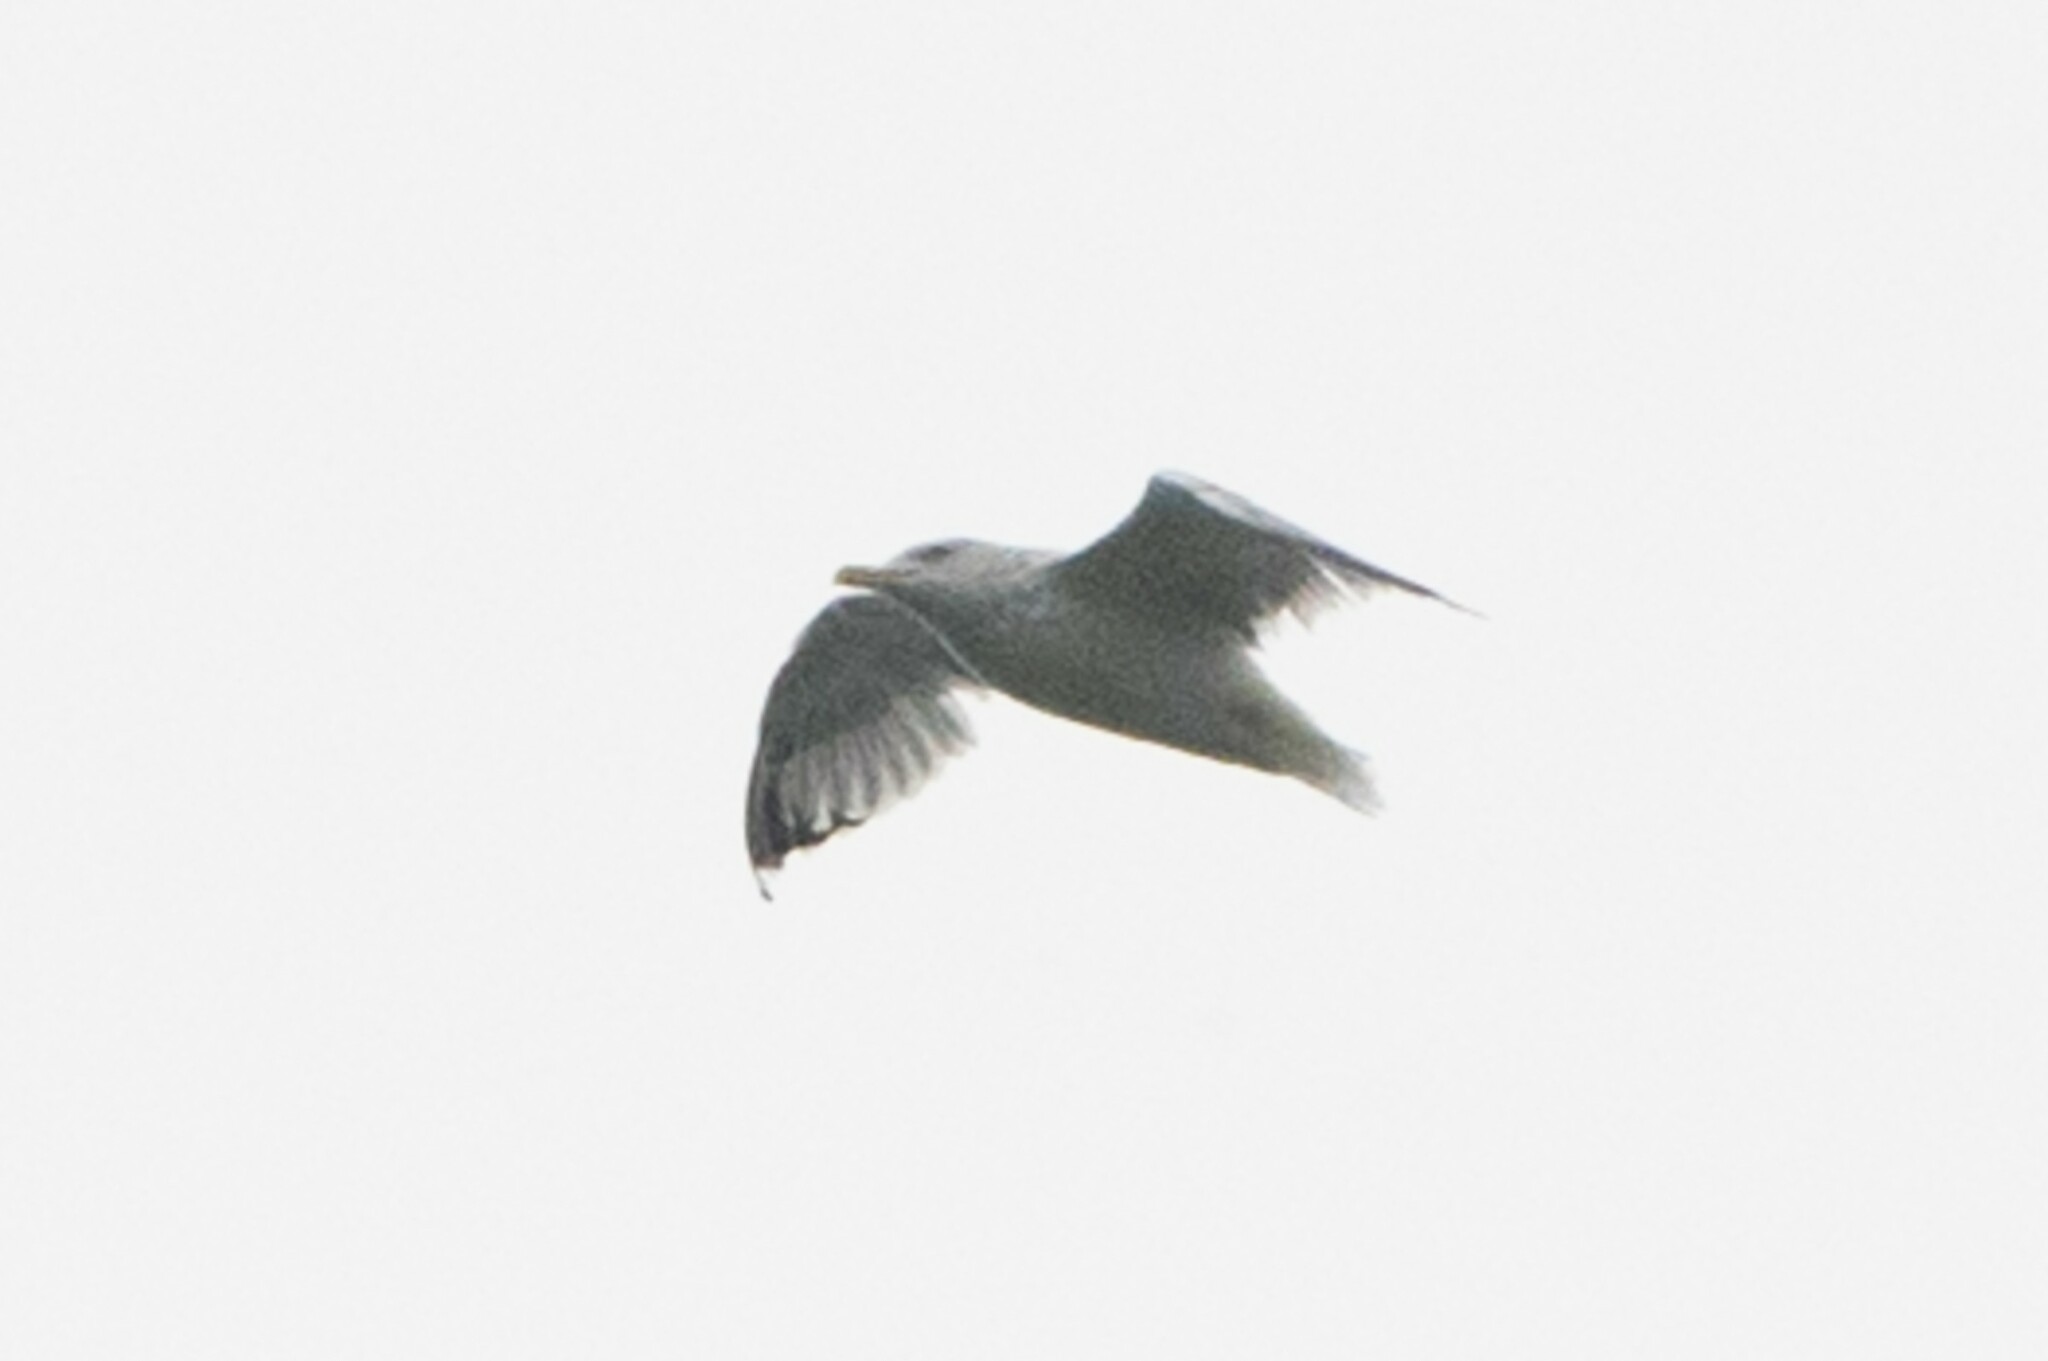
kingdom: Animalia
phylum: Chordata
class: Aves
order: Charadriiformes
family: Laridae
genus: Larus
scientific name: Larus argentatus
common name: Herring gull
